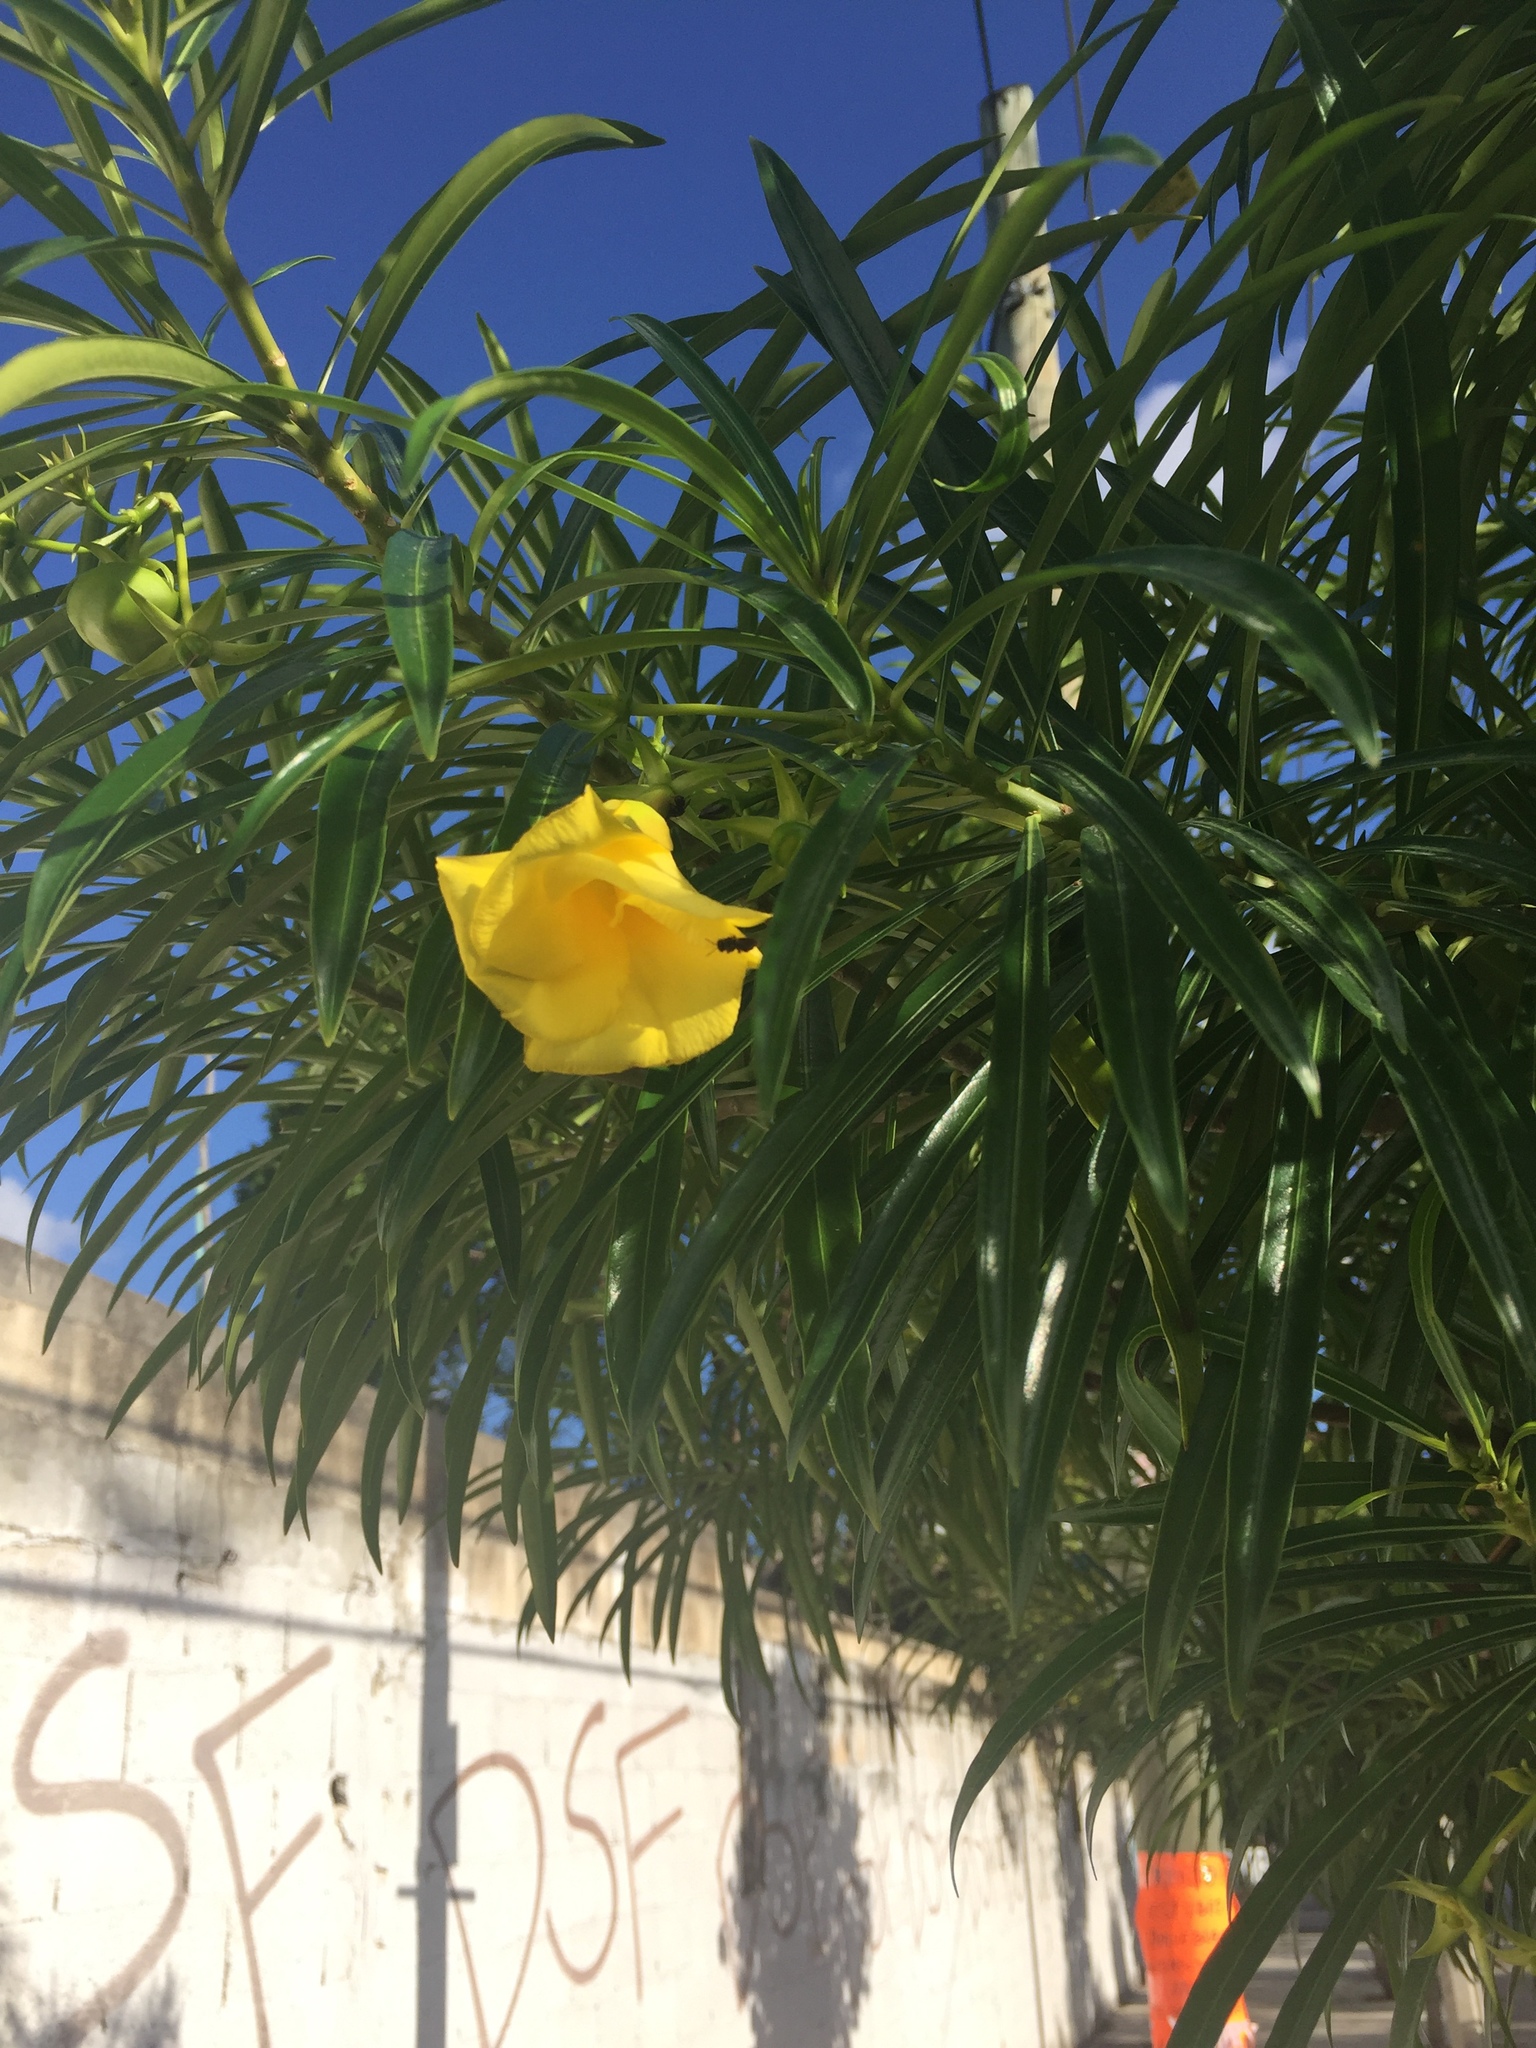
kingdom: Plantae
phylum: Tracheophyta
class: Magnoliopsida
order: Gentianales
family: Apocynaceae
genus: Cascabela
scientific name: Cascabela thevetia
